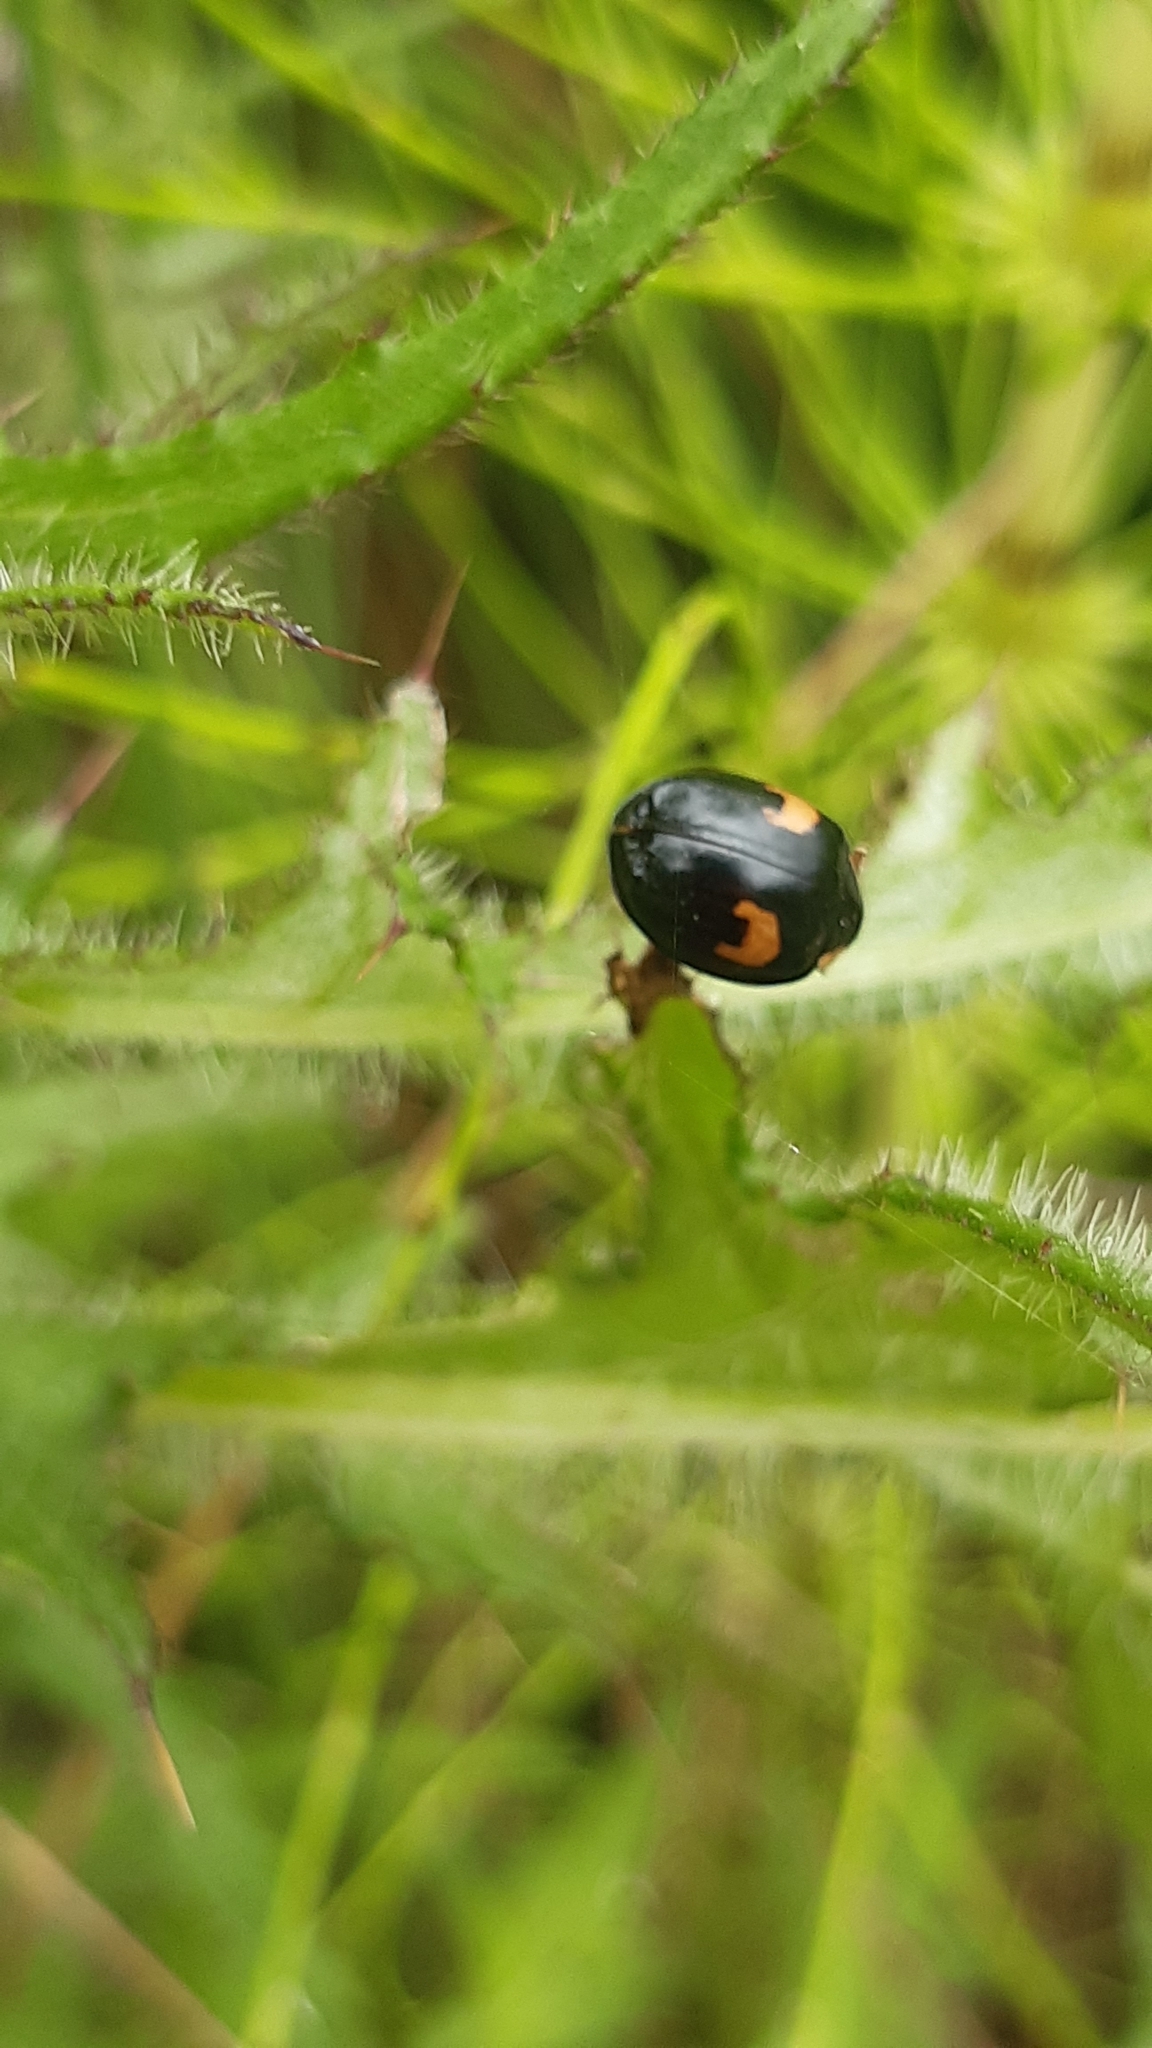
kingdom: Animalia
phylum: Arthropoda
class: Insecta
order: Coleoptera
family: Coccinellidae
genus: Harmonia
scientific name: Harmonia axyridis
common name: Harlequin ladybird
